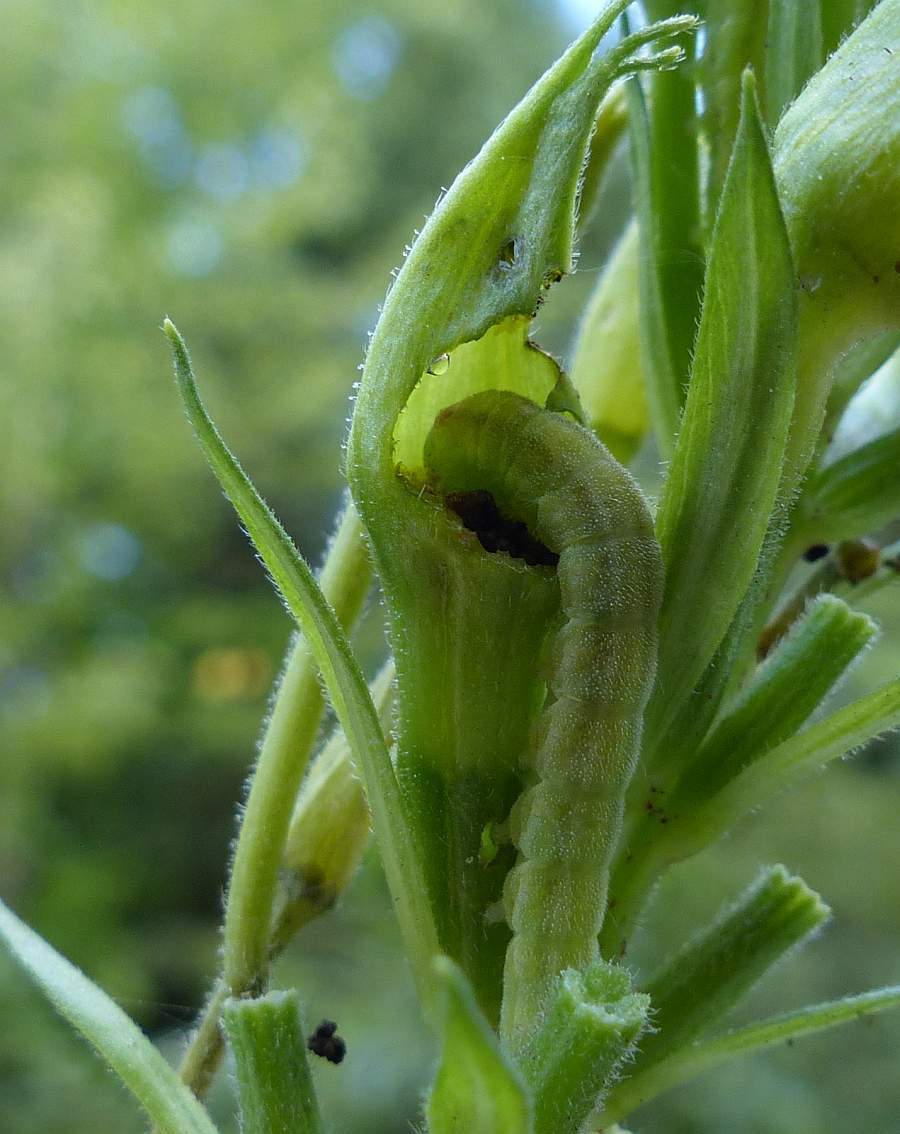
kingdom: Animalia
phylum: Arthropoda
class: Insecta
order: Lepidoptera
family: Noctuidae
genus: Schinia
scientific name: Schinia florida
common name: Primrose moth
